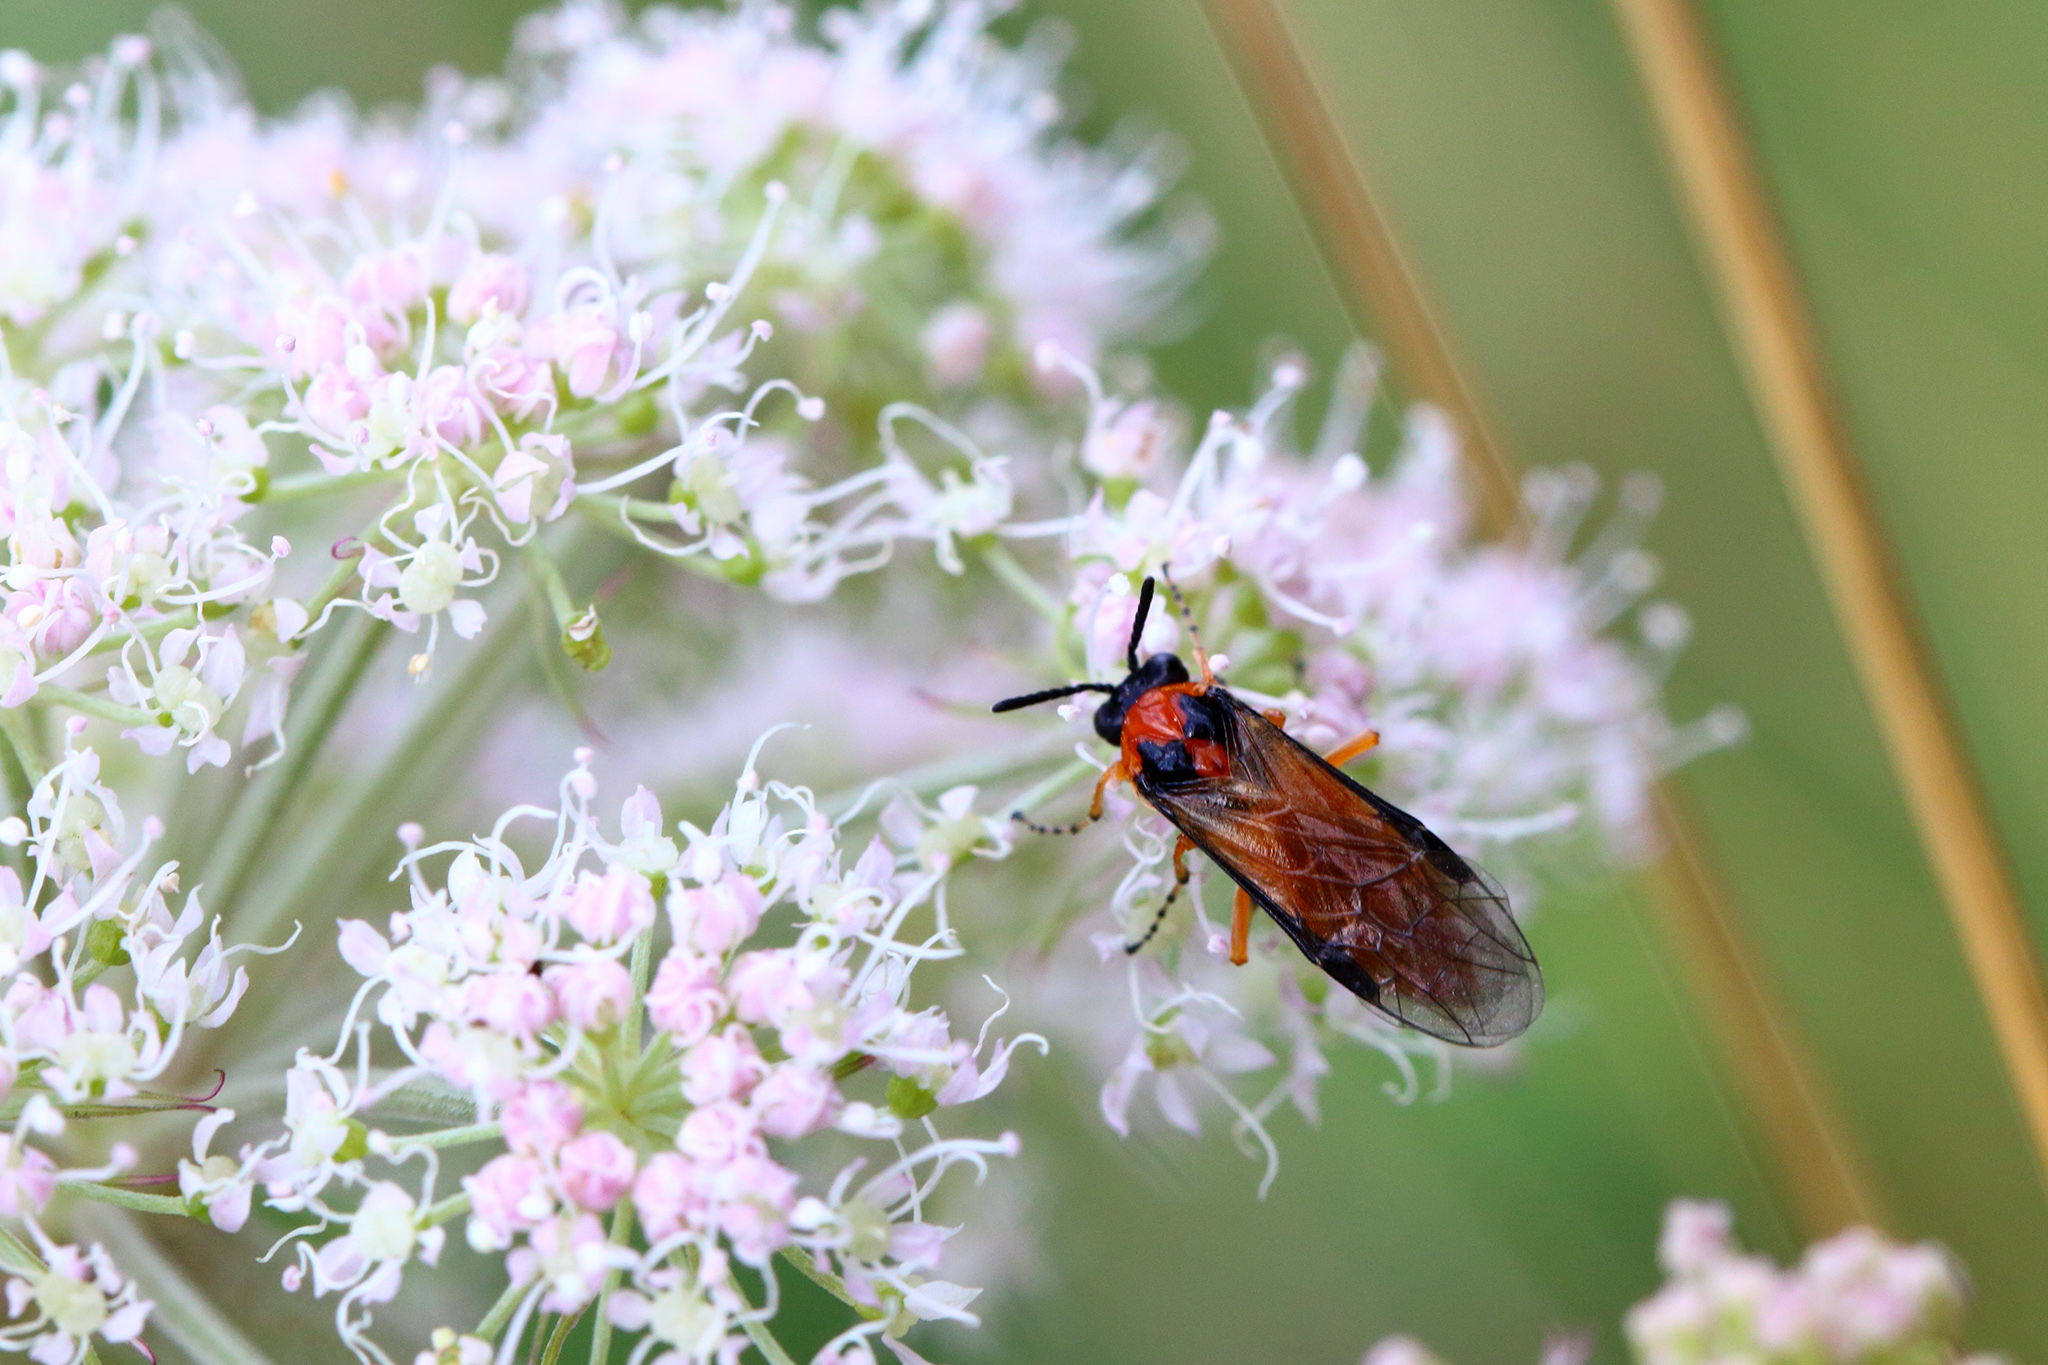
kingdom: Animalia
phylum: Arthropoda
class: Insecta
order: Hymenoptera
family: Tenthredinidae
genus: Athalia
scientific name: Athalia rosae
